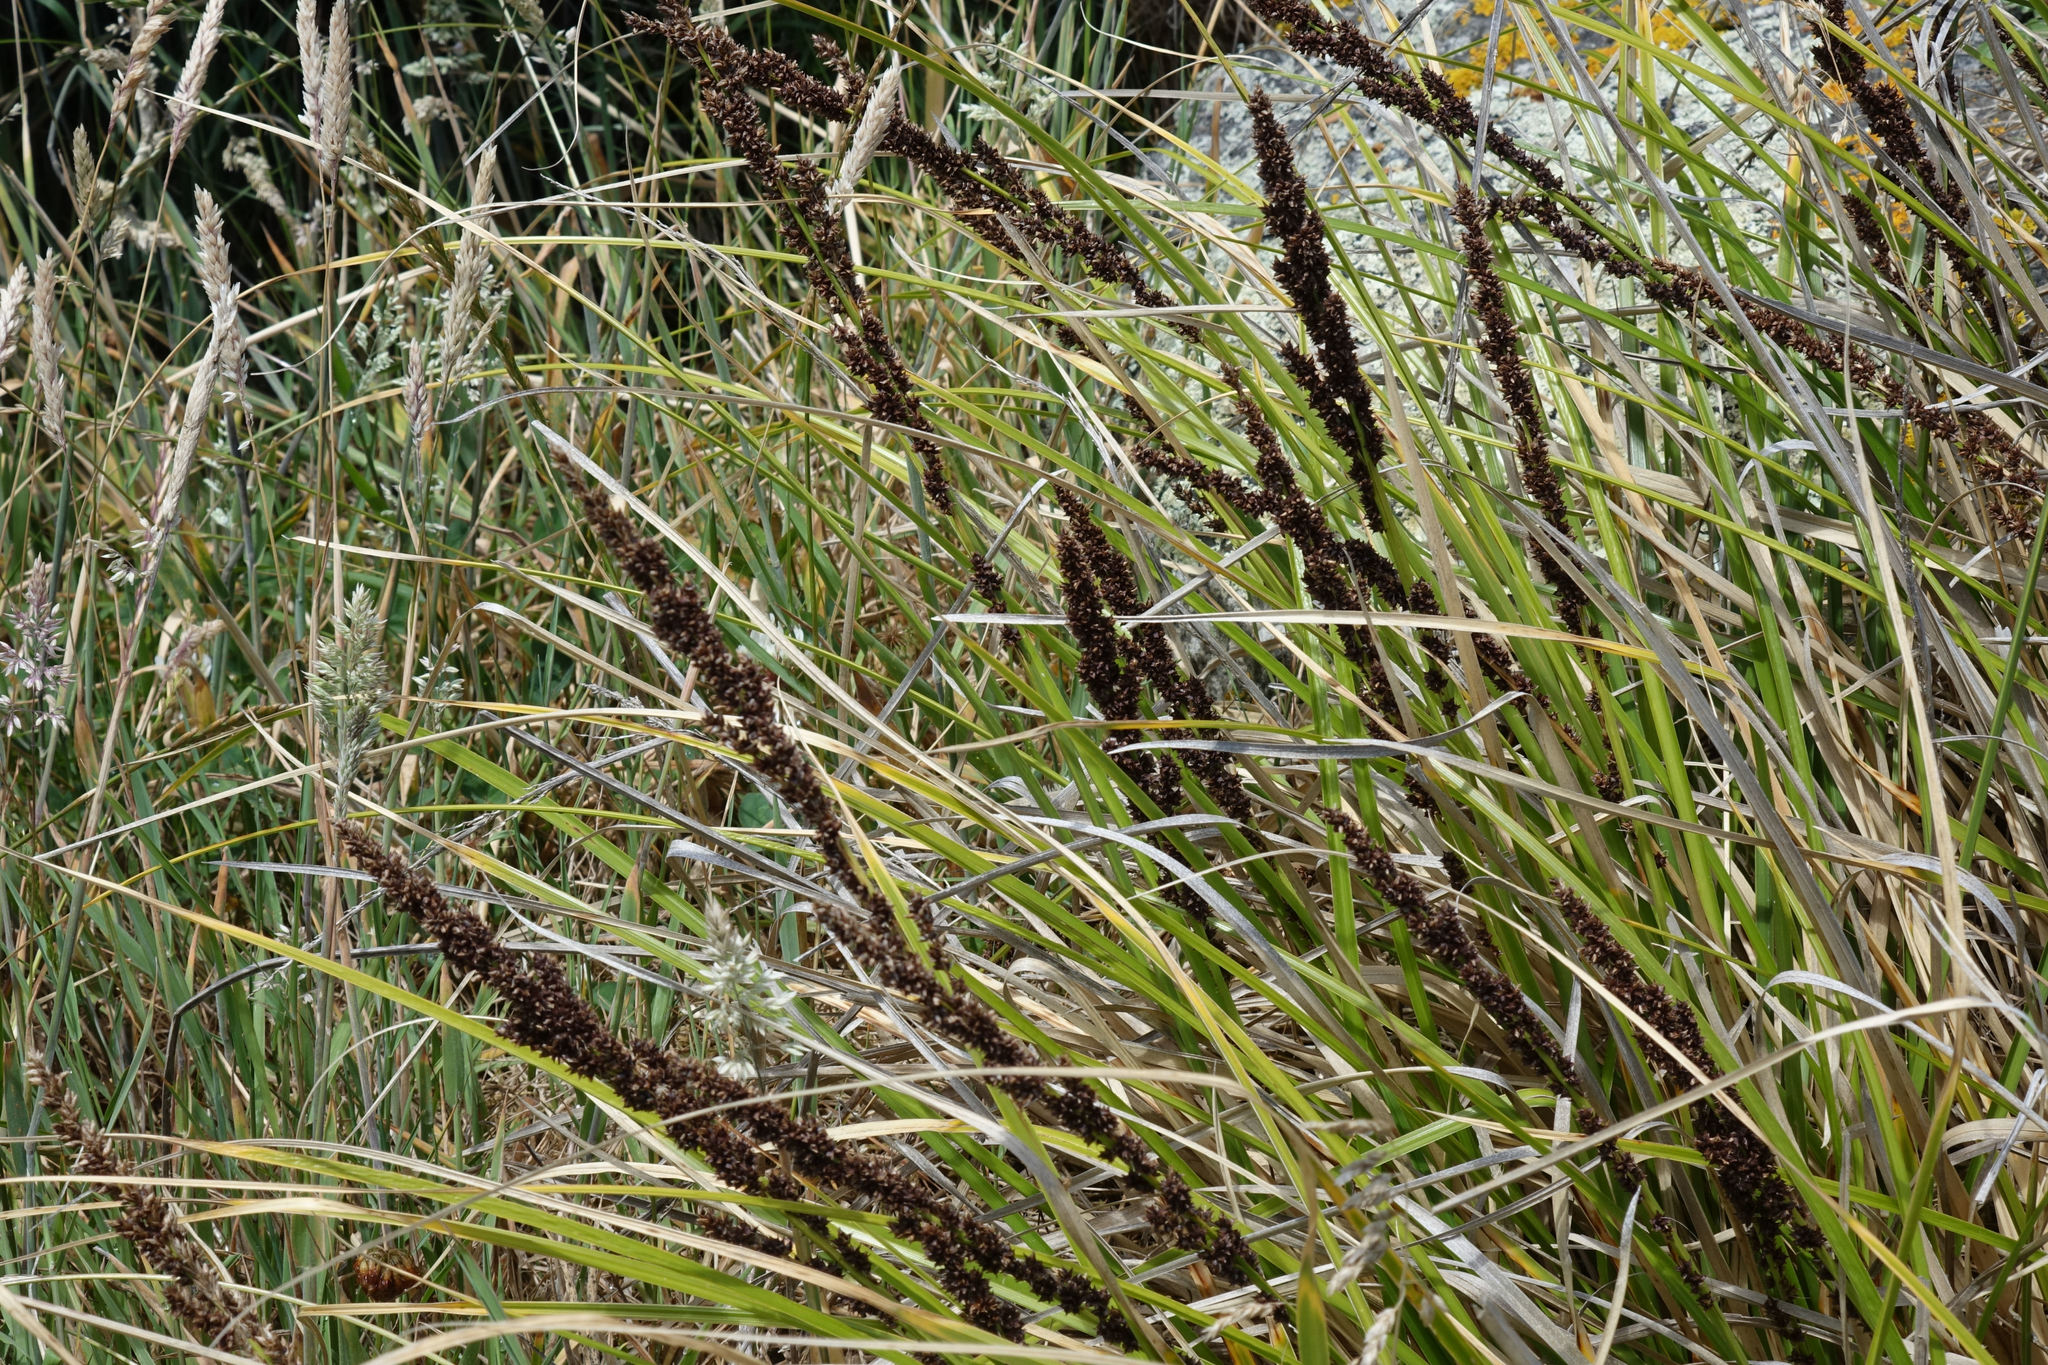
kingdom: Plantae
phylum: Tracheophyta
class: Liliopsida
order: Poales
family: Cyperaceae
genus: Carex
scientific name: Carex appressa
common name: Tussock sedge
